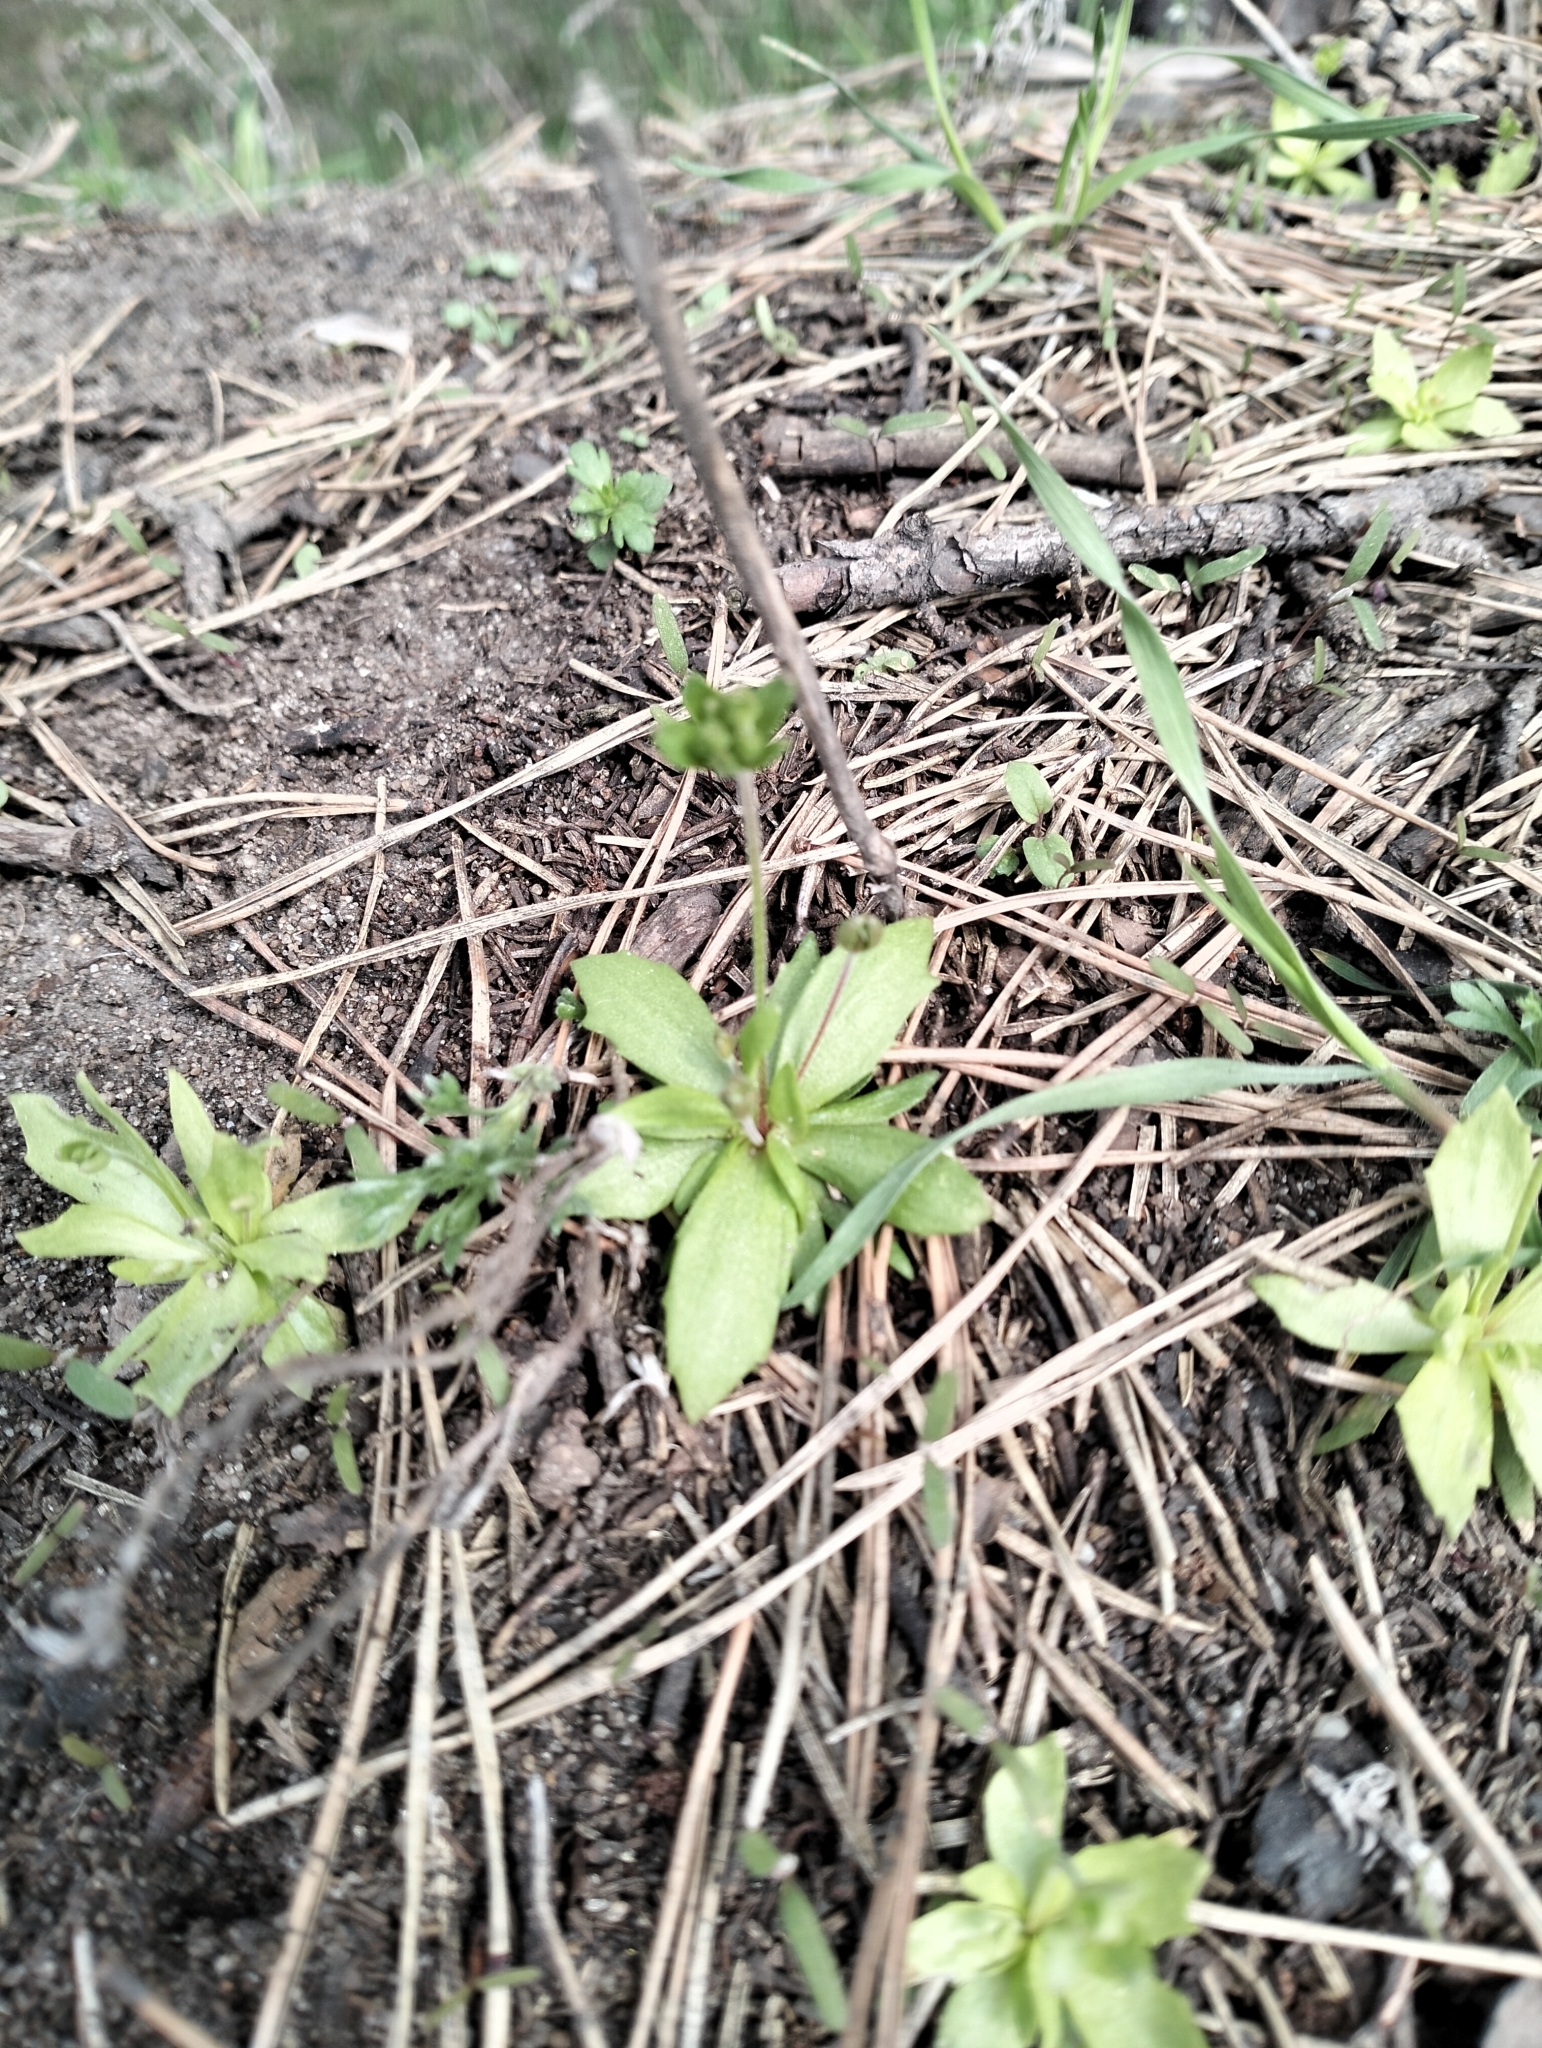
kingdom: Plantae
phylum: Tracheophyta
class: Magnoliopsida
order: Ericales
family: Primulaceae
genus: Androsace
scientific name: Androsace elongata
